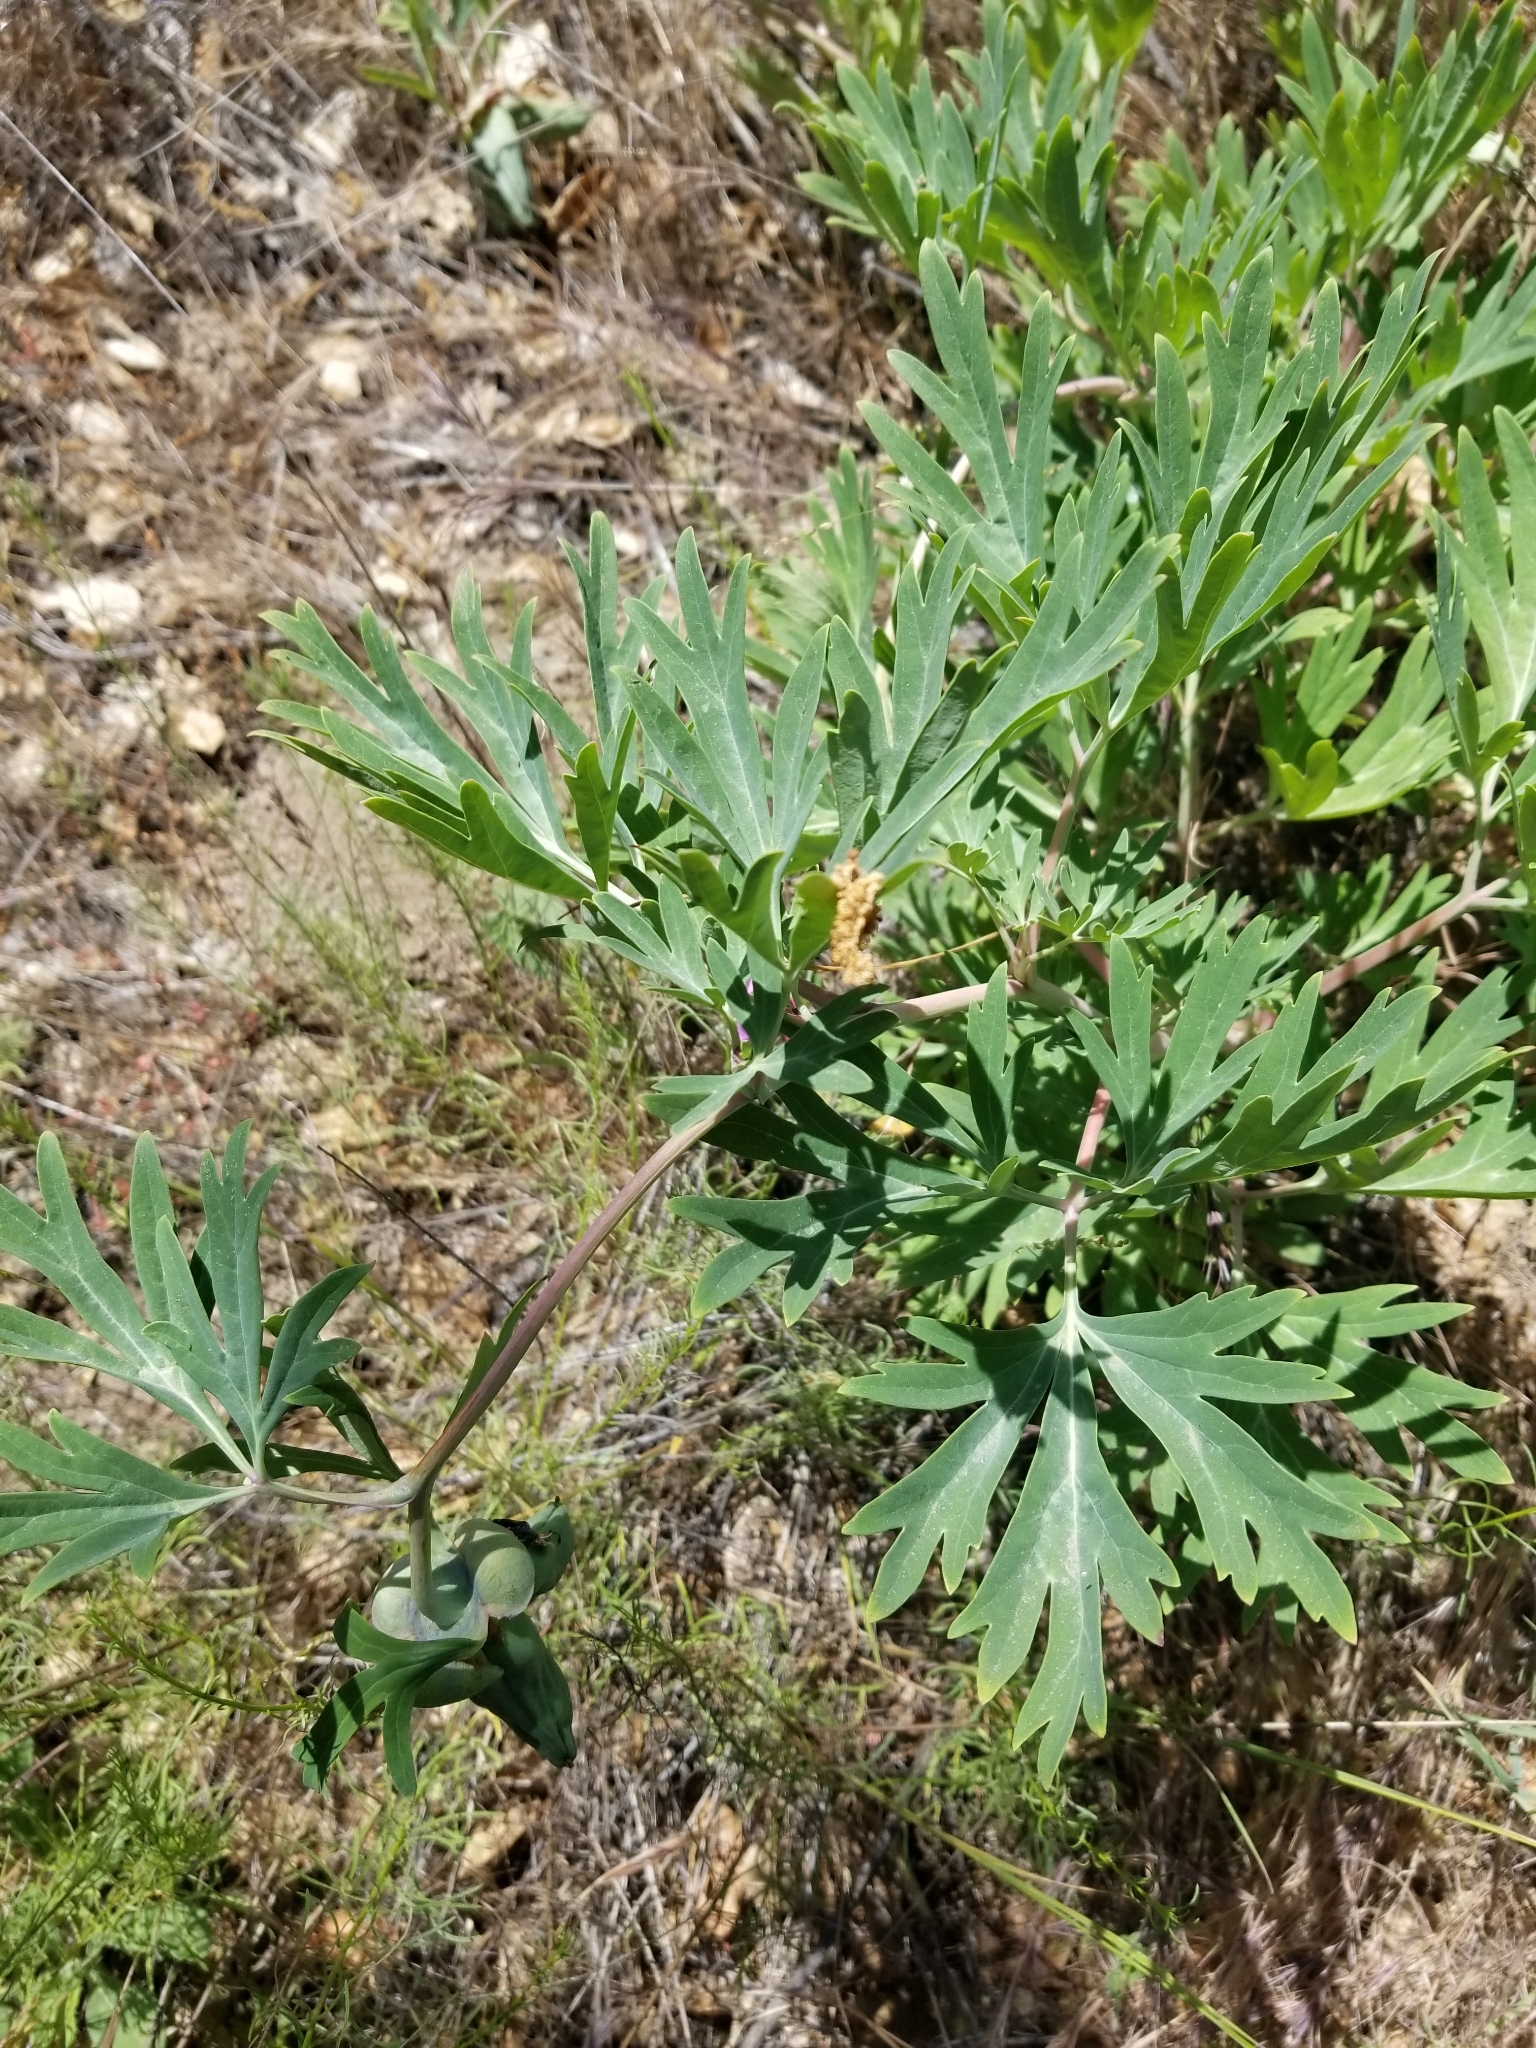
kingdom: Plantae
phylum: Tracheophyta
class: Magnoliopsida
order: Saxifragales
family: Paeoniaceae
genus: Paeonia
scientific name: Paeonia californica
